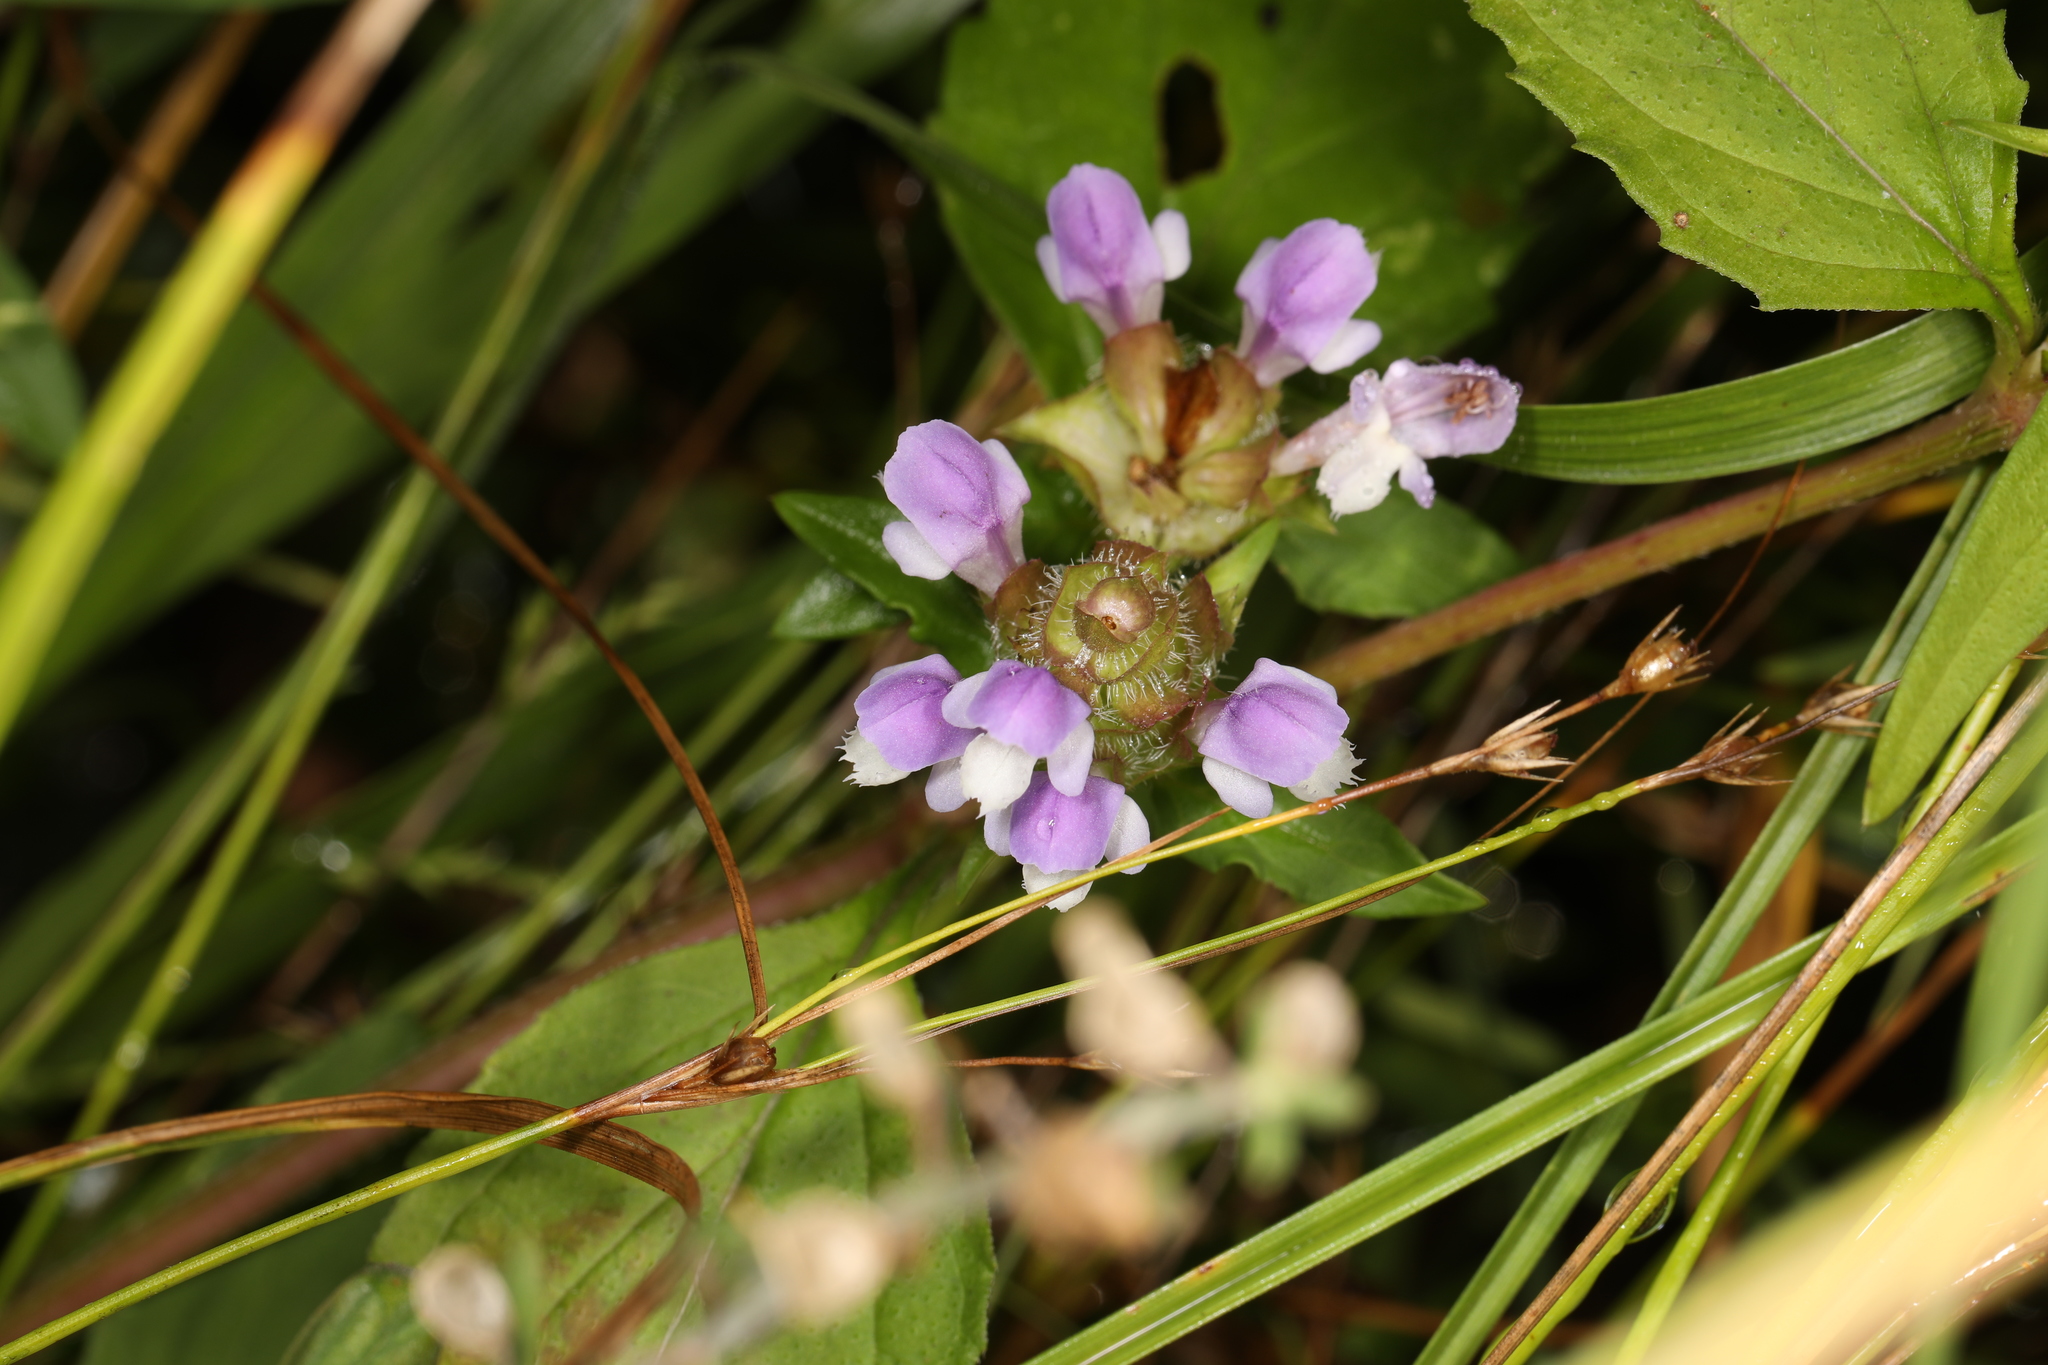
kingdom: Plantae
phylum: Tracheophyta
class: Magnoliopsida
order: Lamiales
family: Lamiaceae
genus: Prunella
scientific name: Prunella vulgaris
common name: Heal-all
